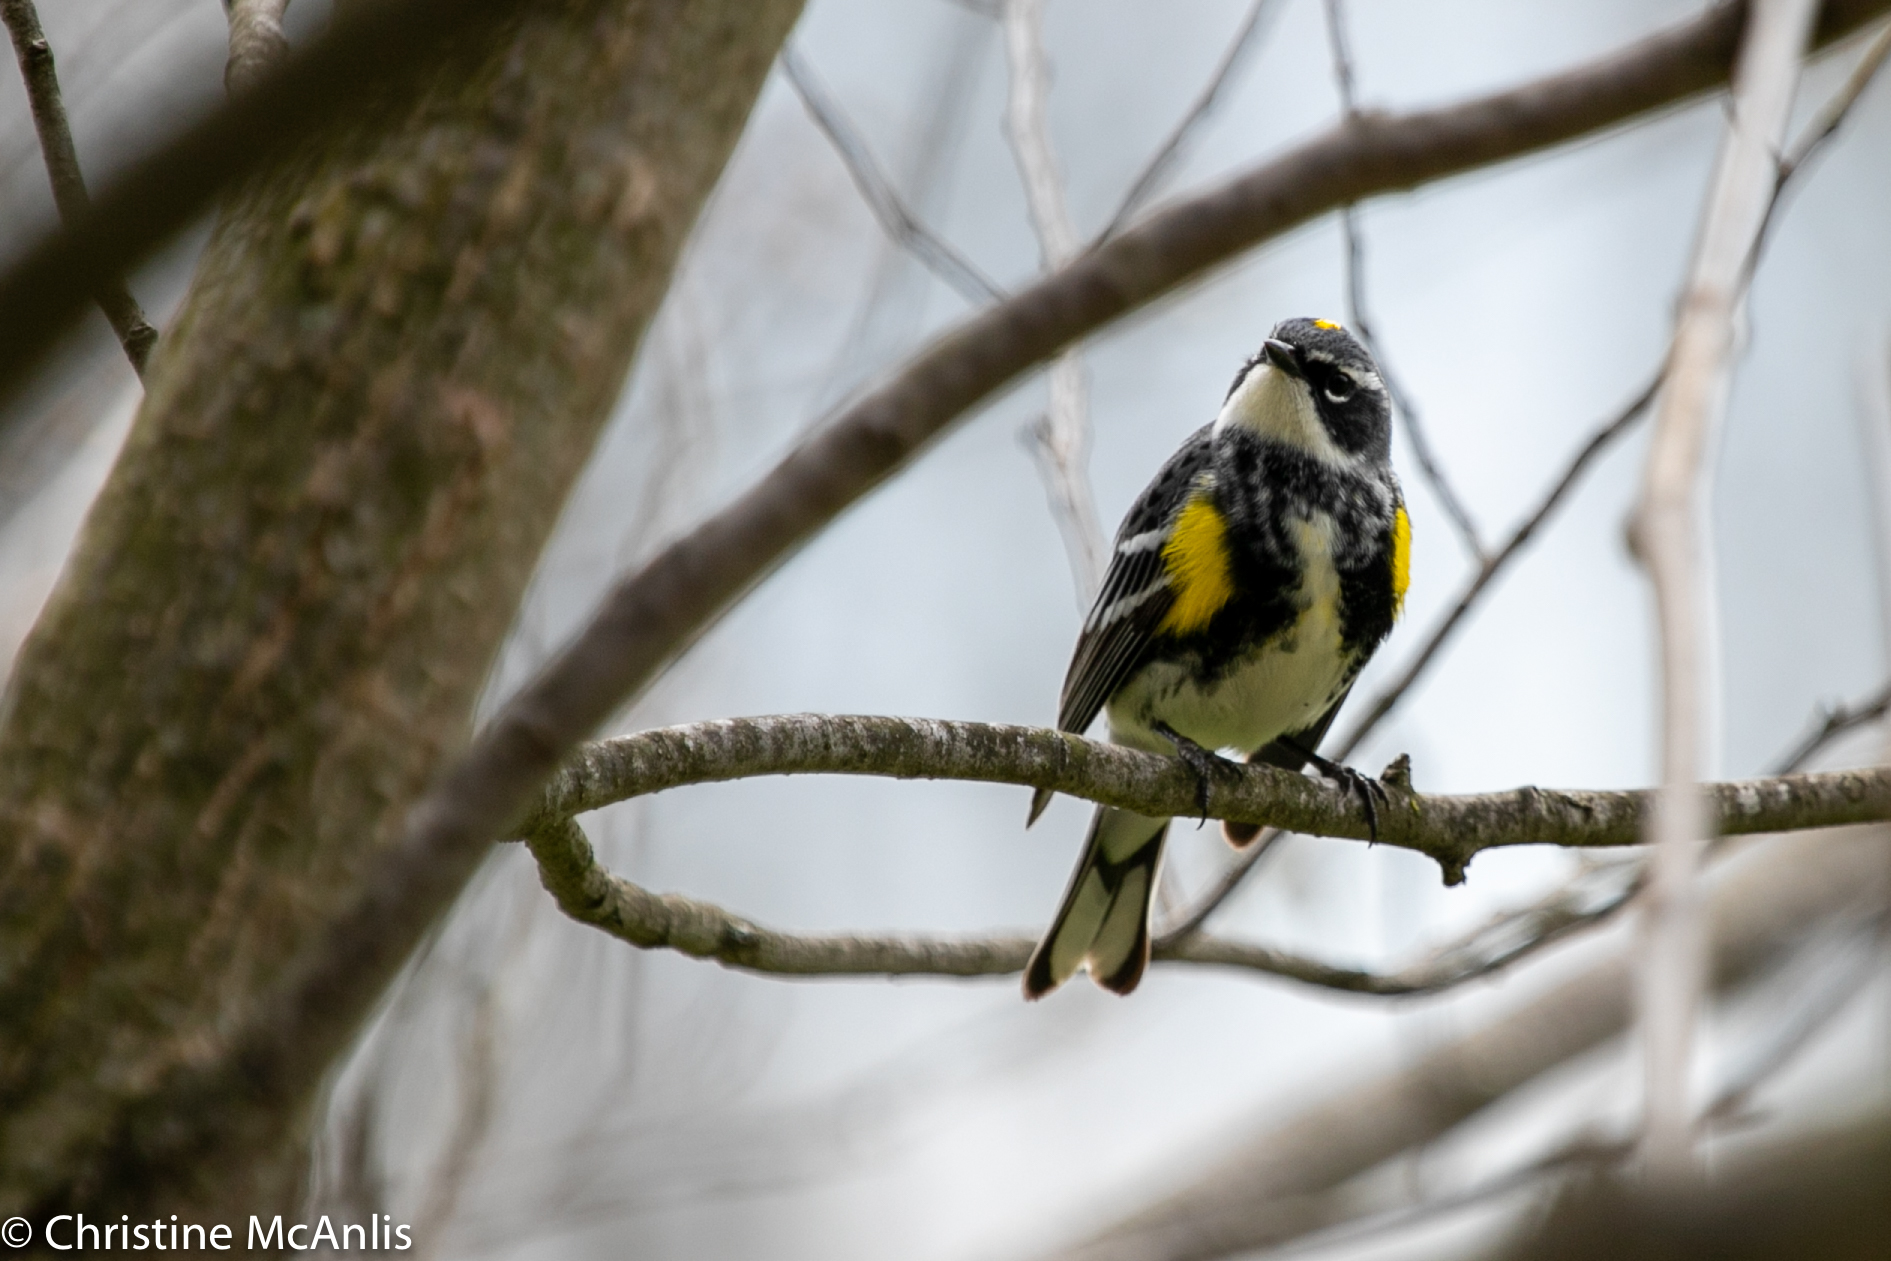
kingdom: Animalia
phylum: Chordata
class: Aves
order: Passeriformes
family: Parulidae
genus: Setophaga
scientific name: Setophaga coronata
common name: Myrtle warbler
